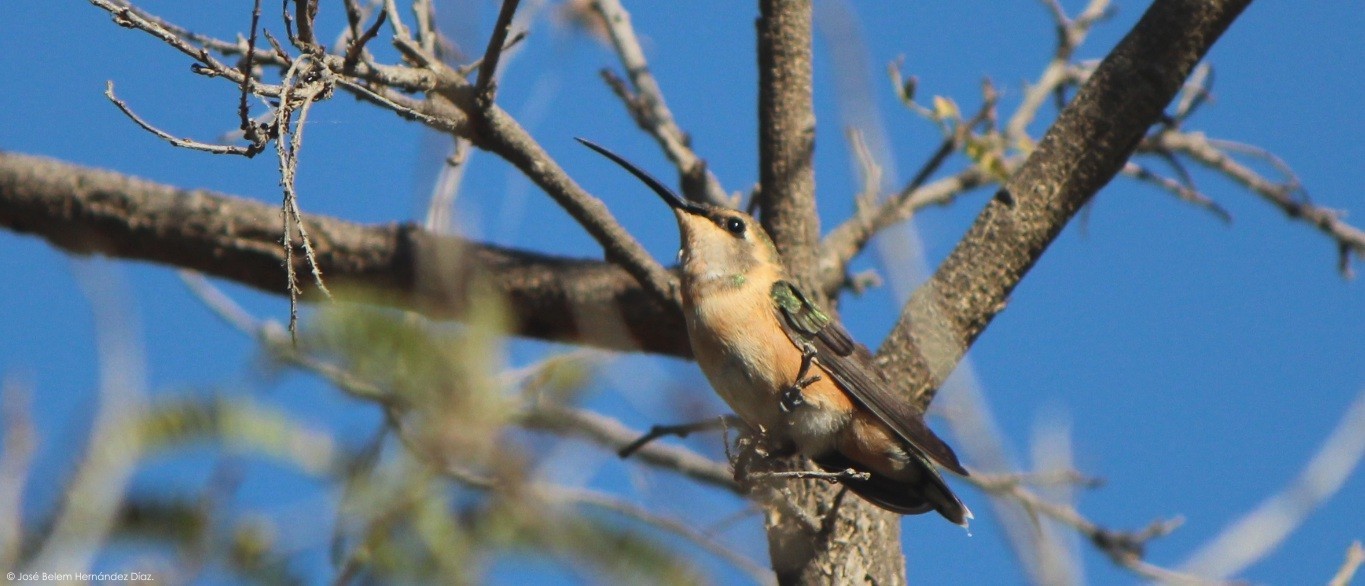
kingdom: Animalia
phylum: Chordata
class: Aves
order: Apodiformes
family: Trochilidae
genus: Calothorax
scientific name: Calothorax lucifer
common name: Lucifer sheartail
